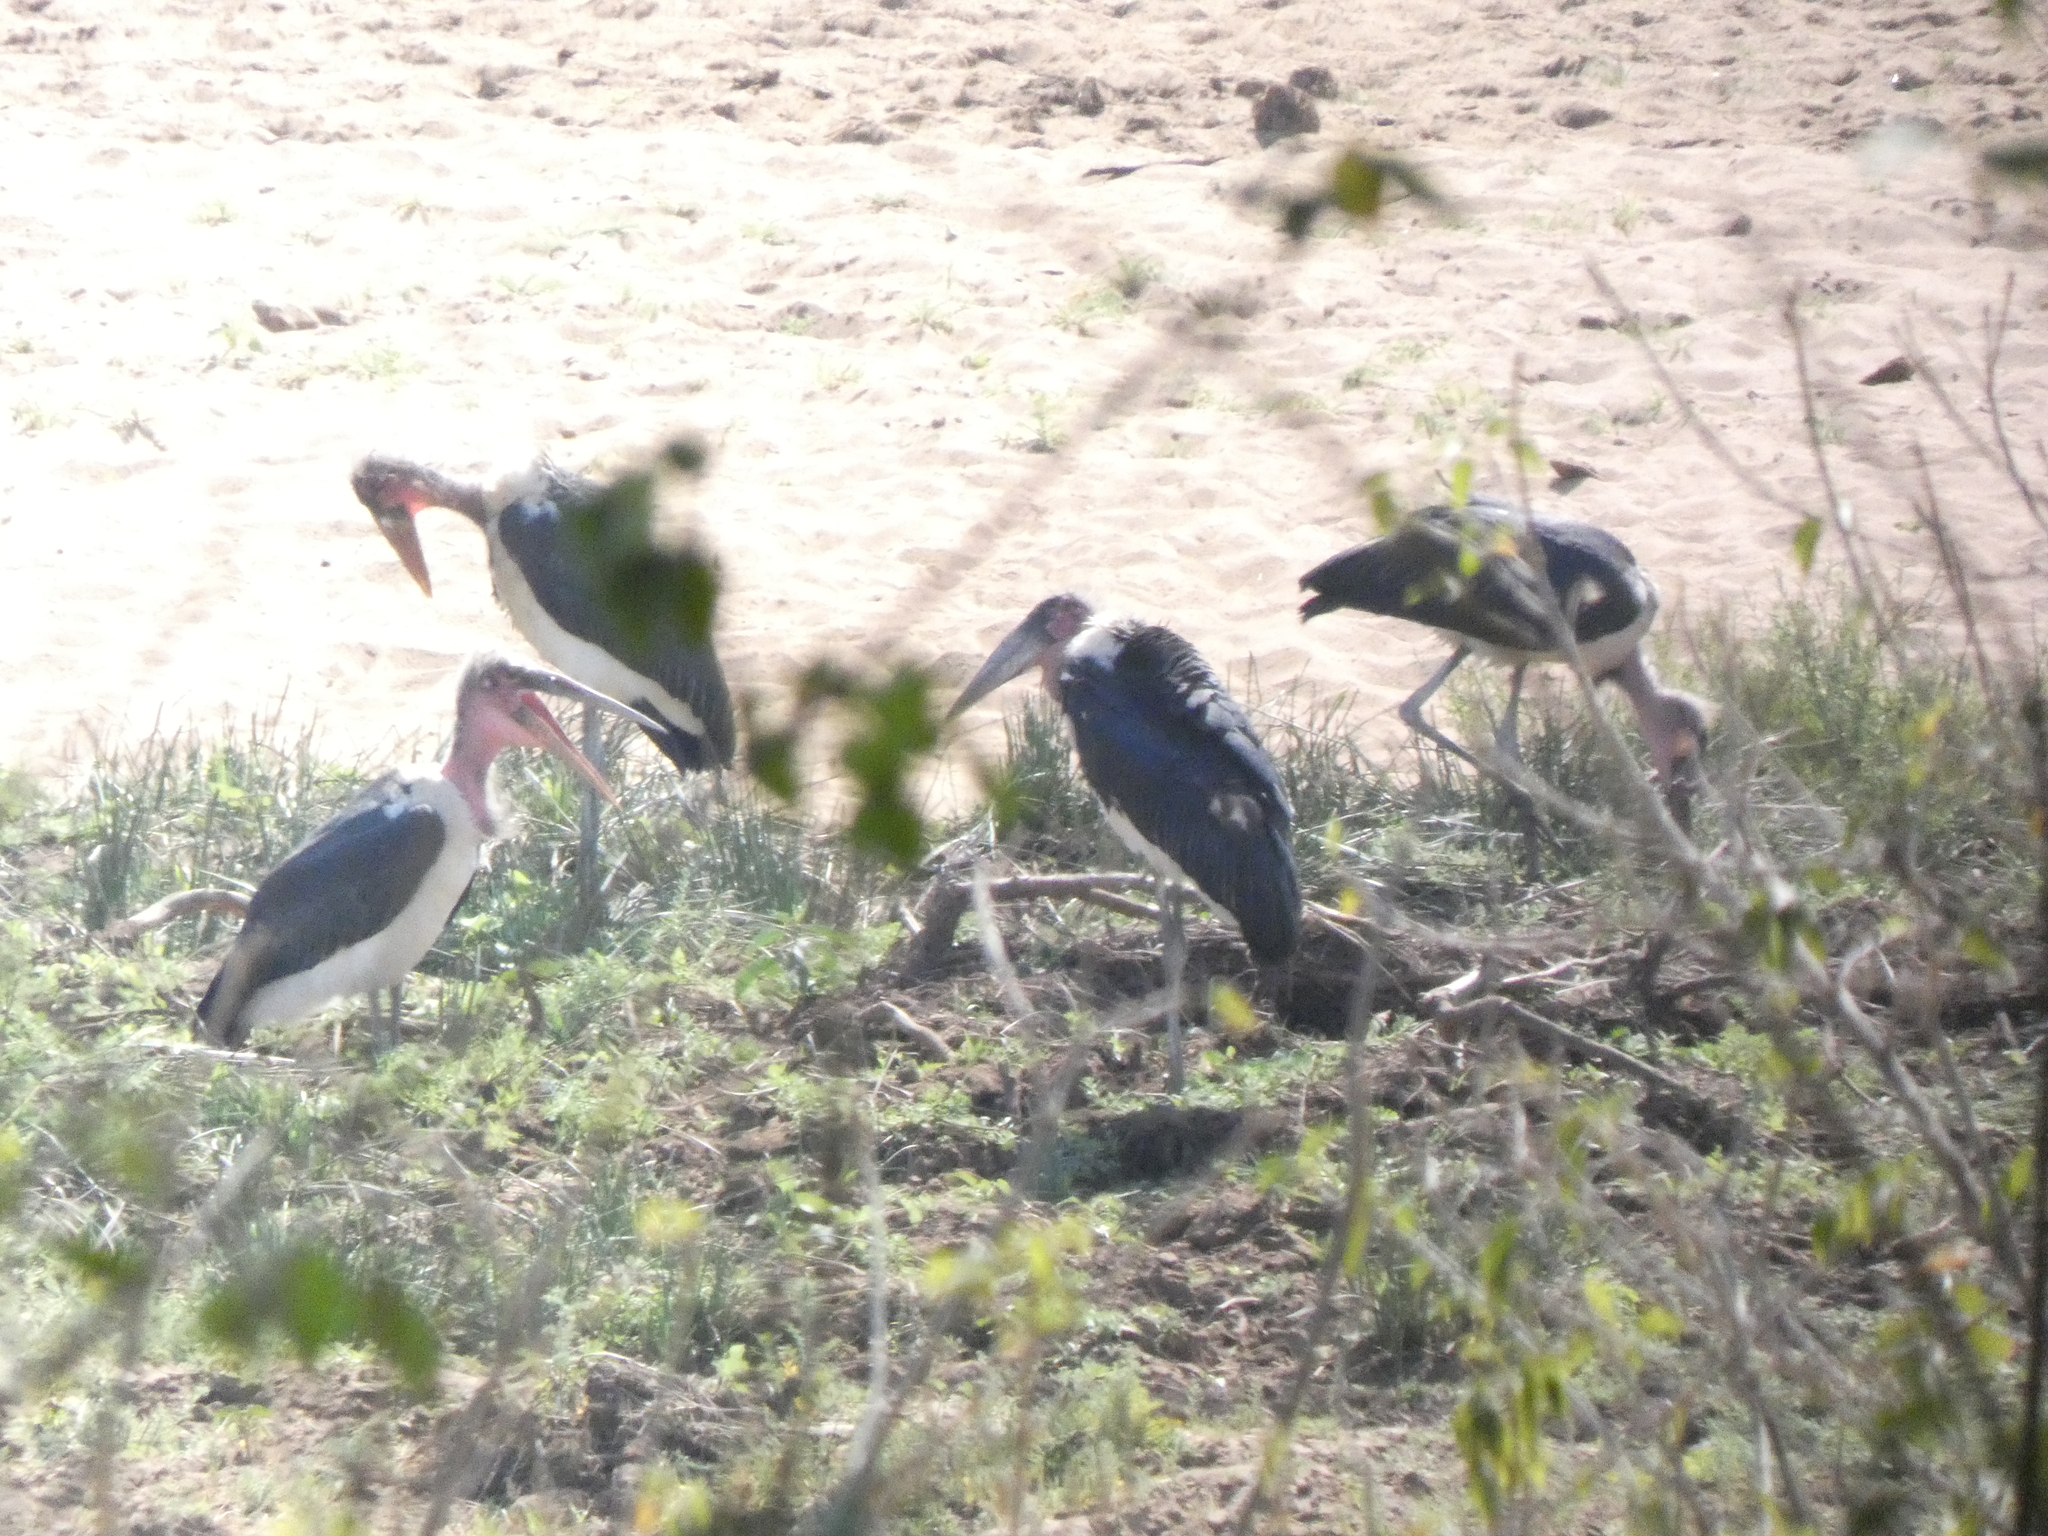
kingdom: Animalia
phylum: Chordata
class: Aves
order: Ciconiiformes
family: Ciconiidae
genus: Leptoptilos
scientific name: Leptoptilos crumenifer
